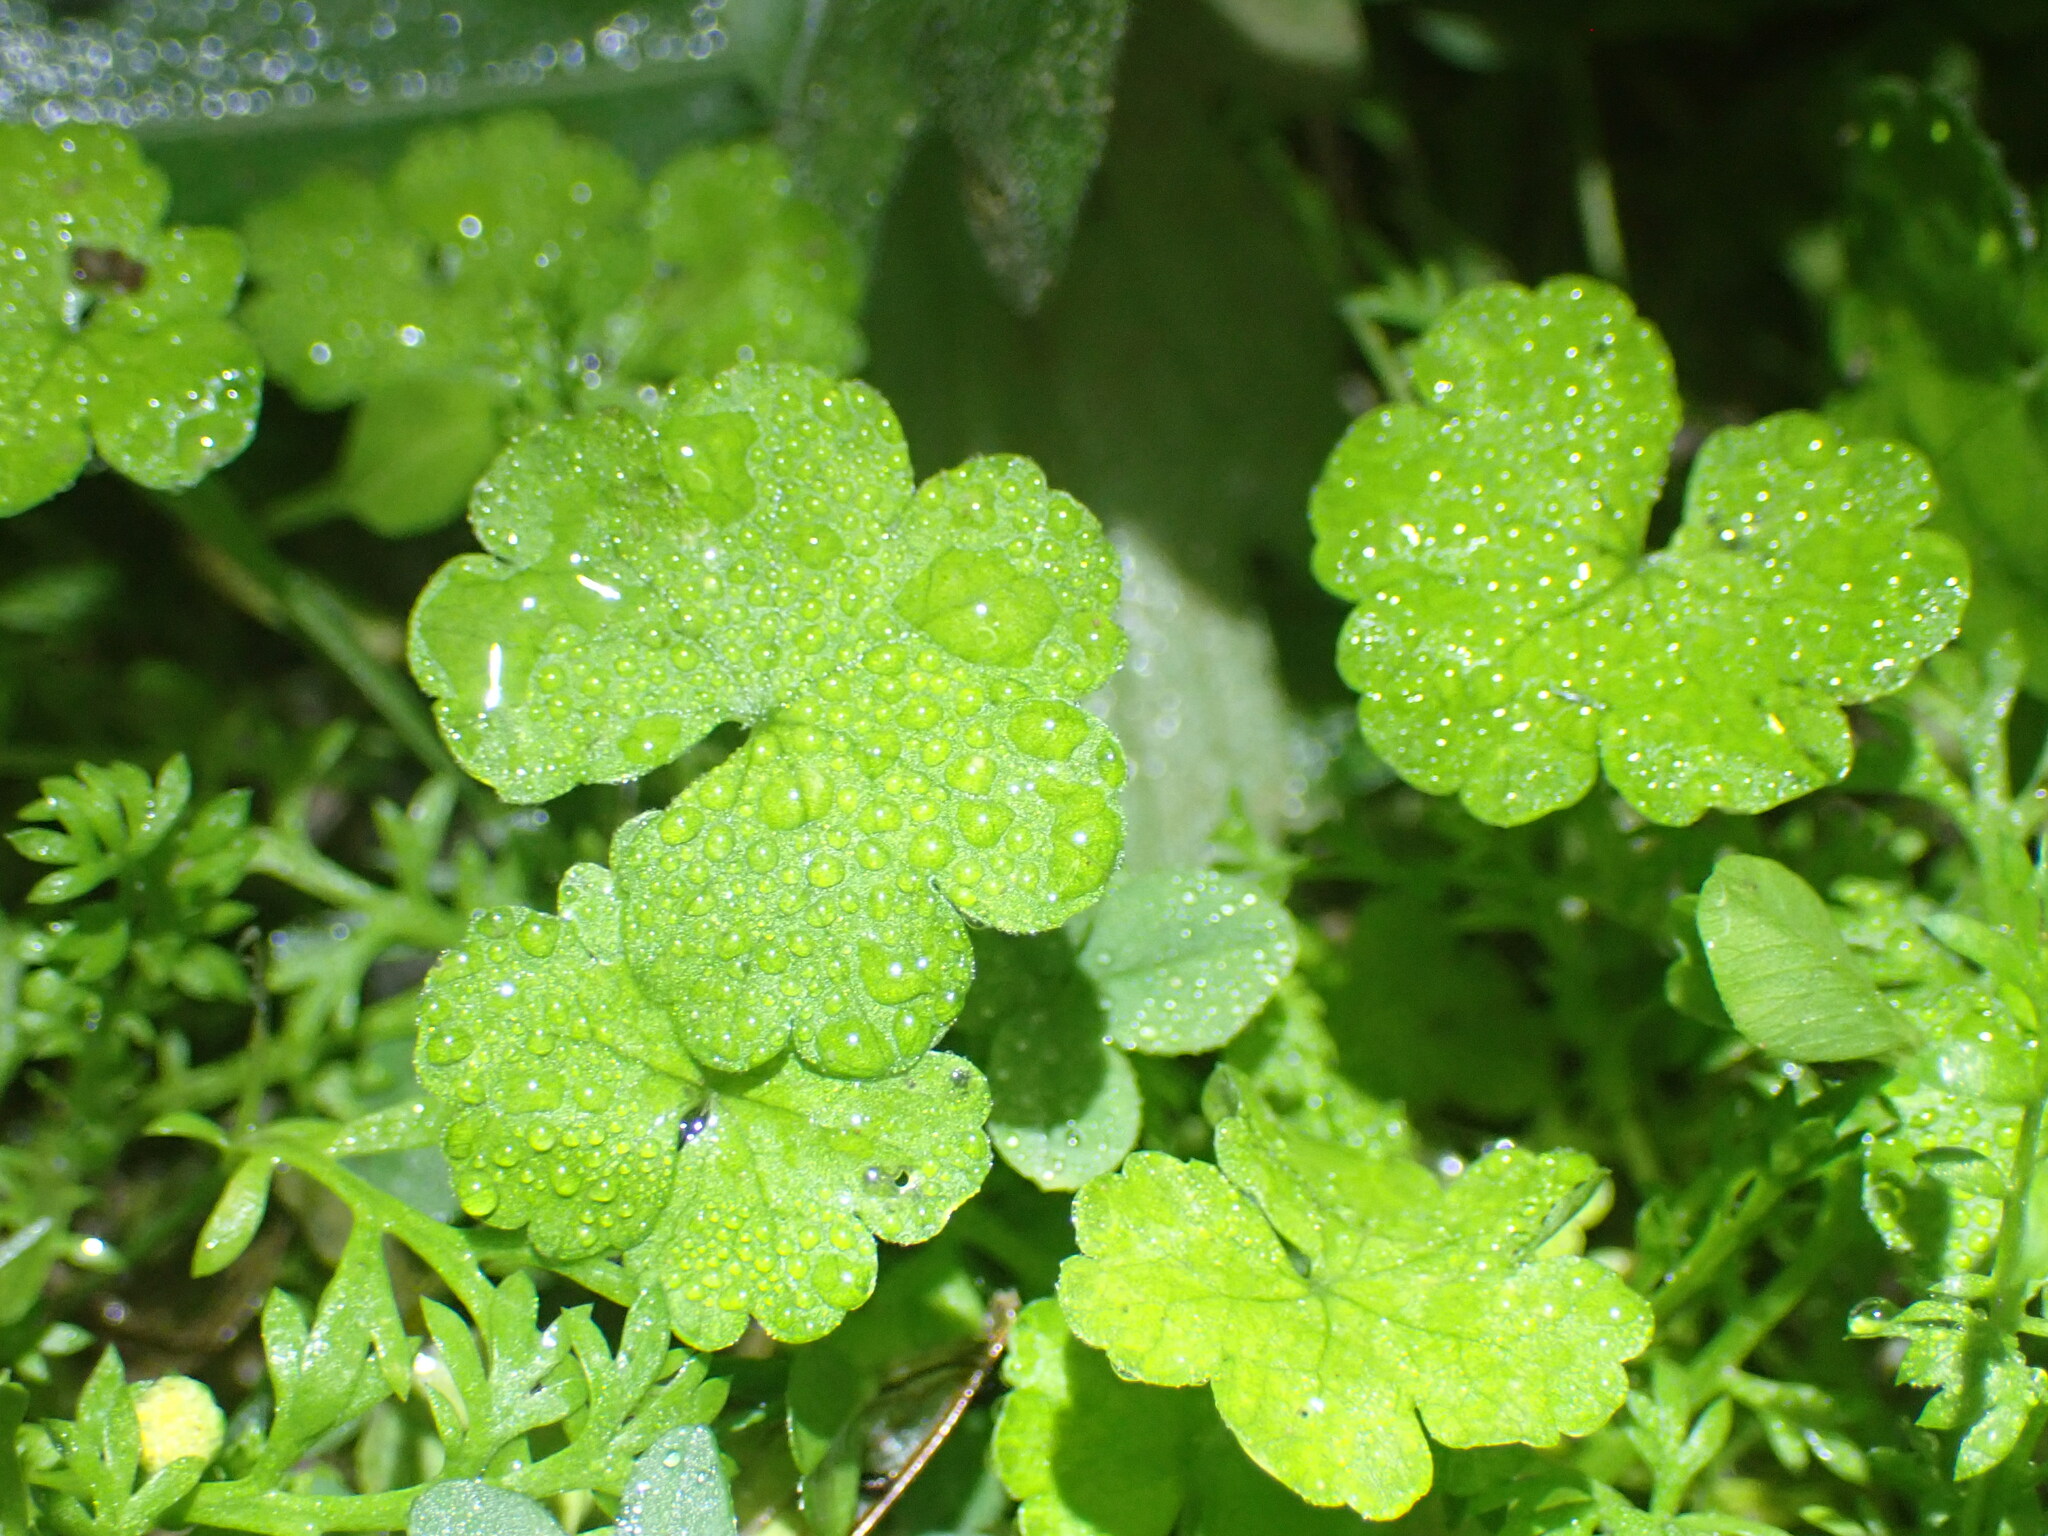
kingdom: Plantae
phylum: Tracheophyta
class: Magnoliopsida
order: Apiales
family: Araliaceae
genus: Hydrocotyle
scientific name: Hydrocotyle heteromeria
